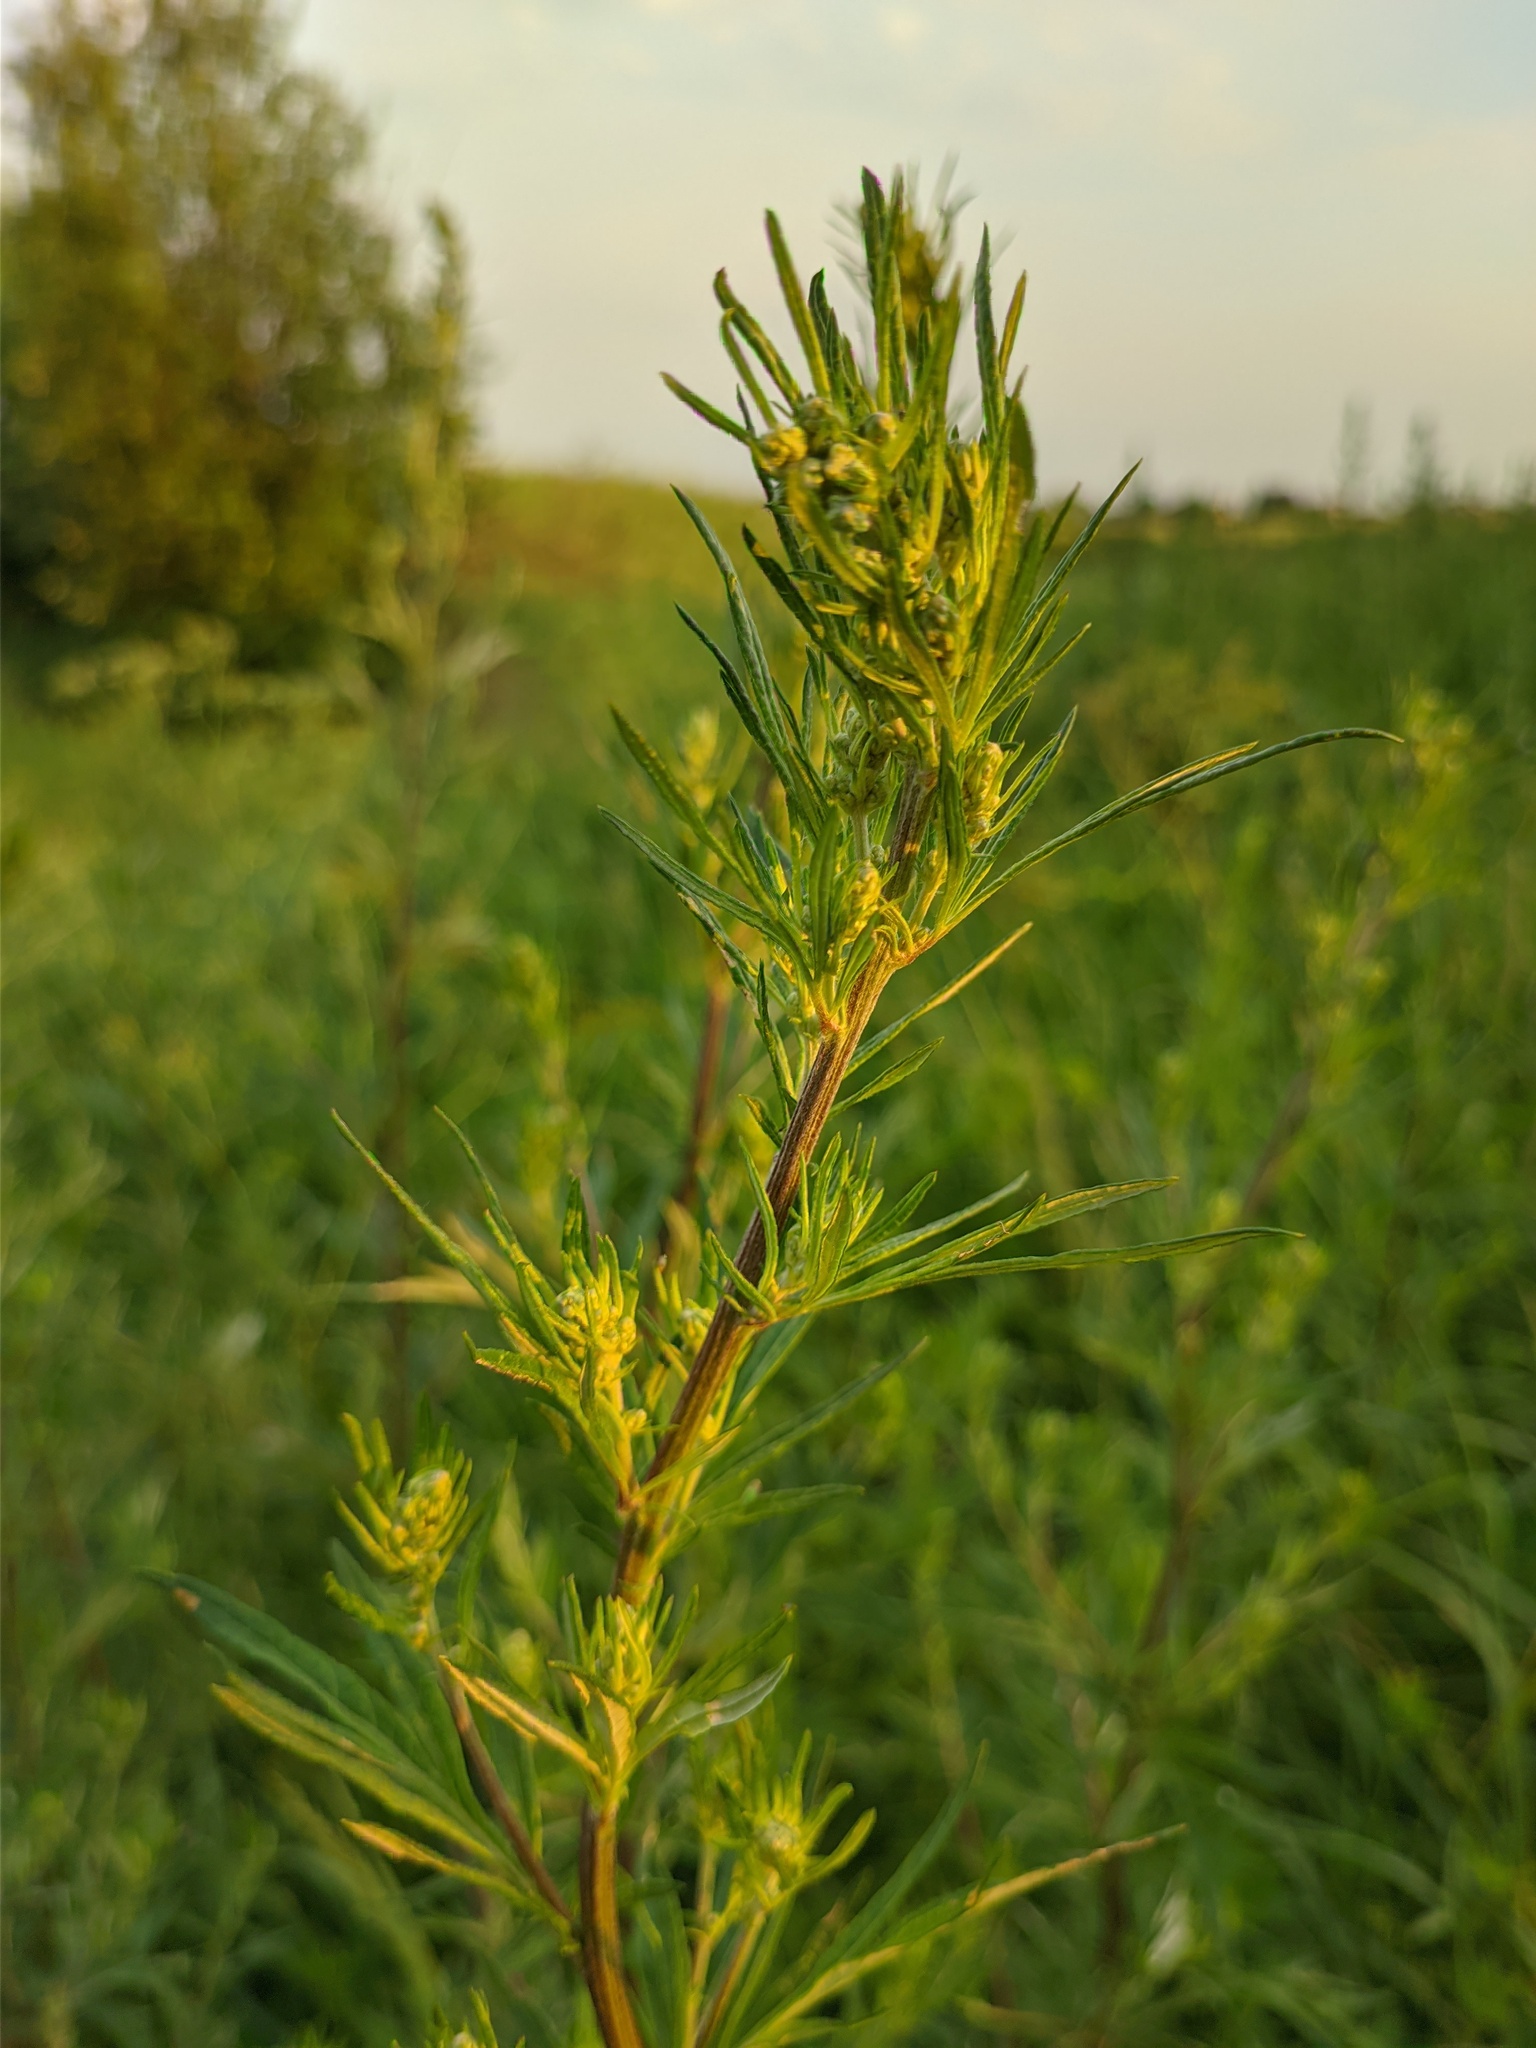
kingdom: Plantae
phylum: Tracheophyta
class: Magnoliopsida
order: Asterales
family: Asteraceae
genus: Artemisia
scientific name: Artemisia vulgaris
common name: Mugwort
